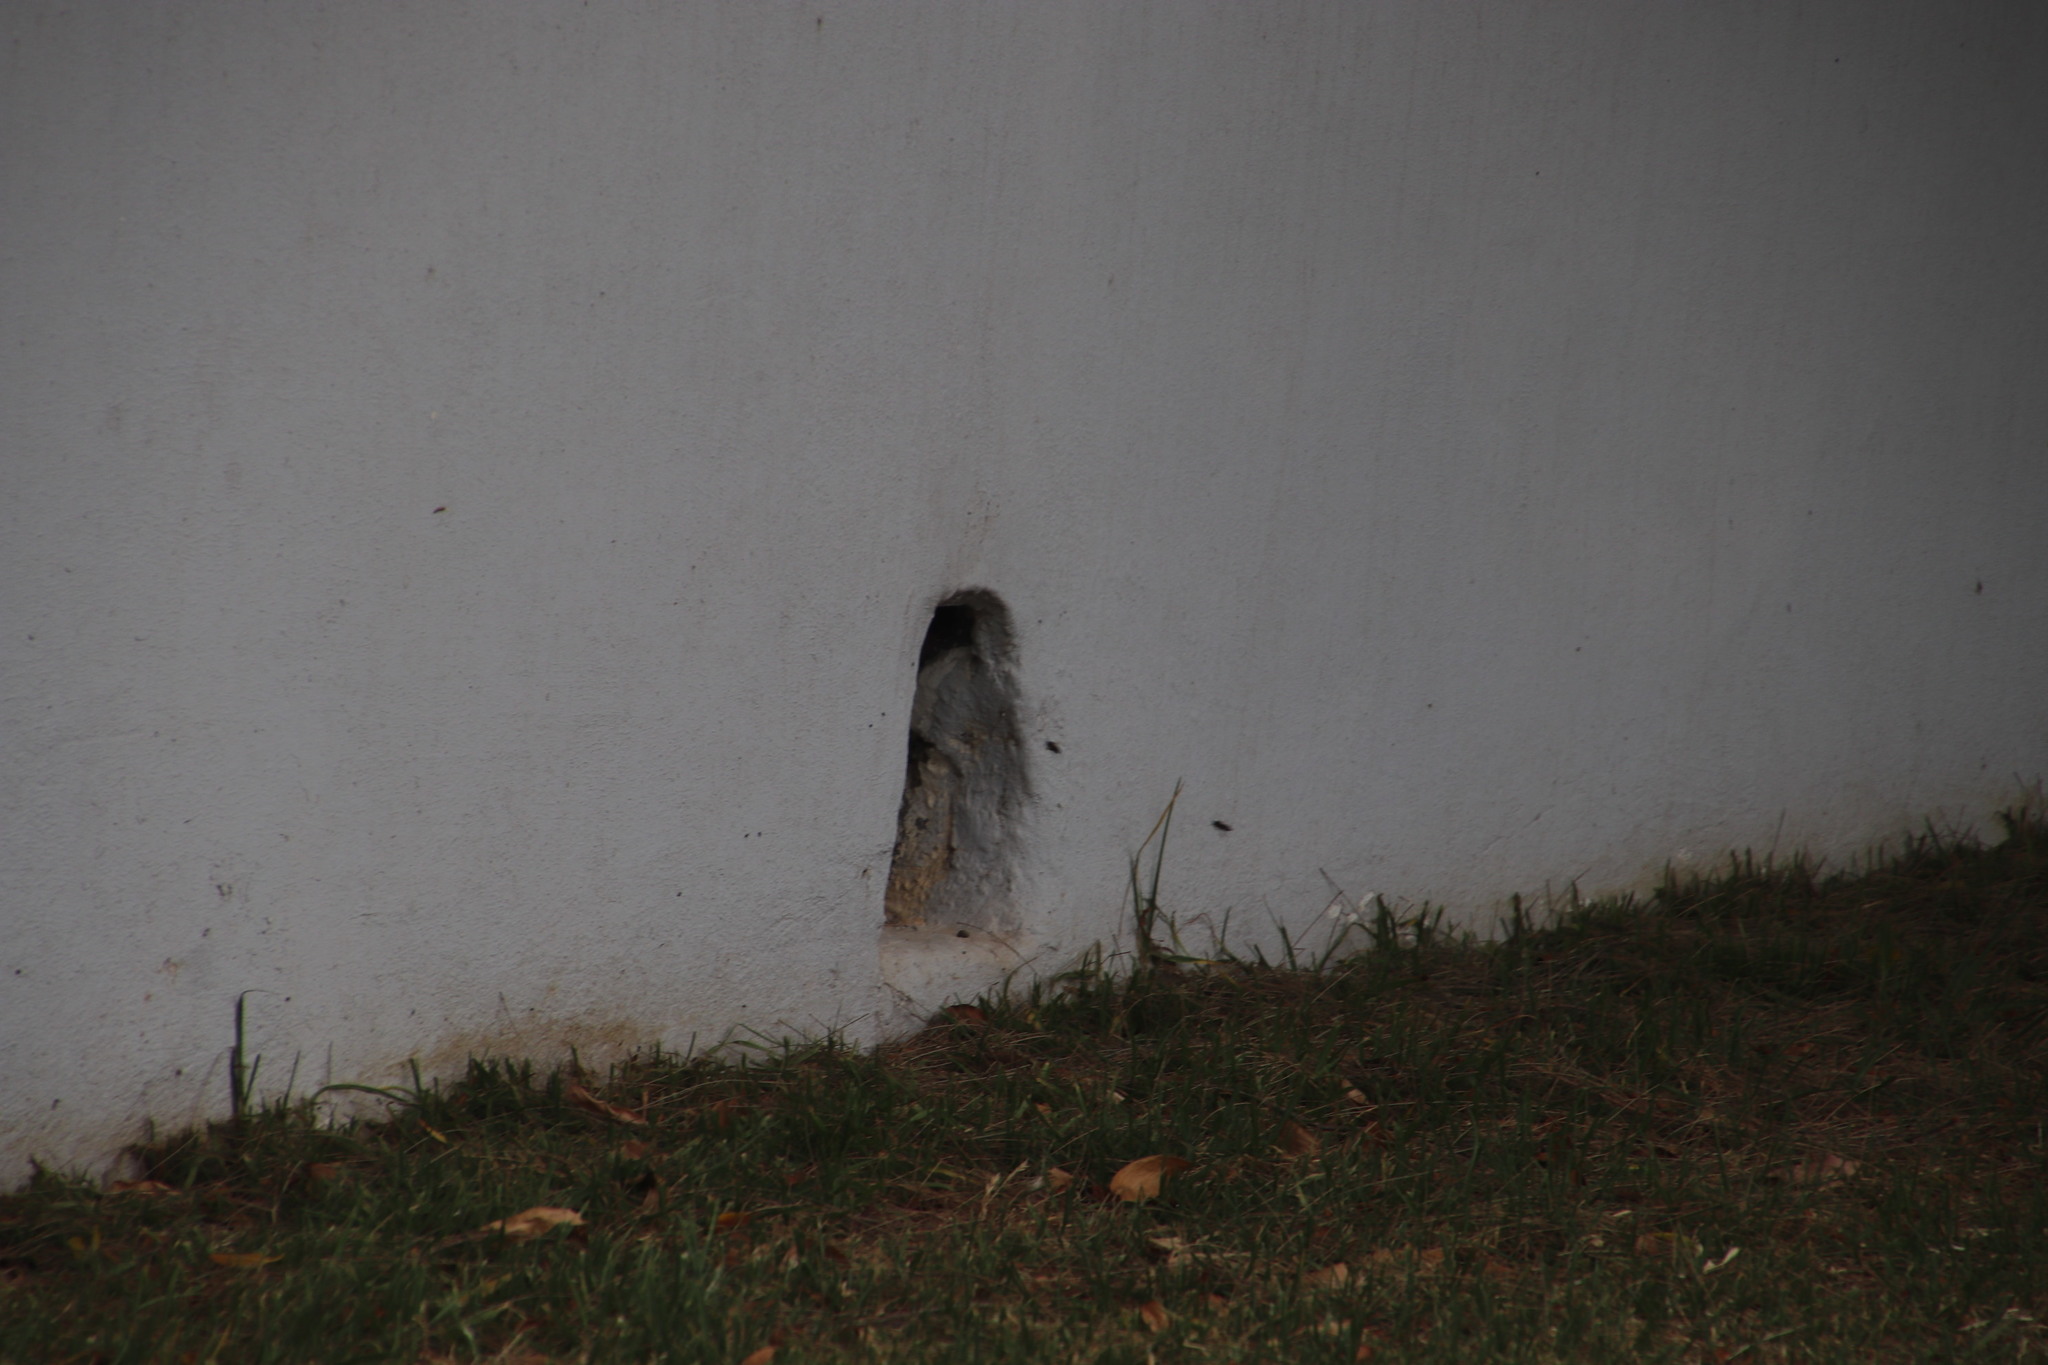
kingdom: Animalia
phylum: Arthropoda
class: Insecta
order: Hymenoptera
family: Apidae
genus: Apis
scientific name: Apis mellifera
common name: Honey bee
